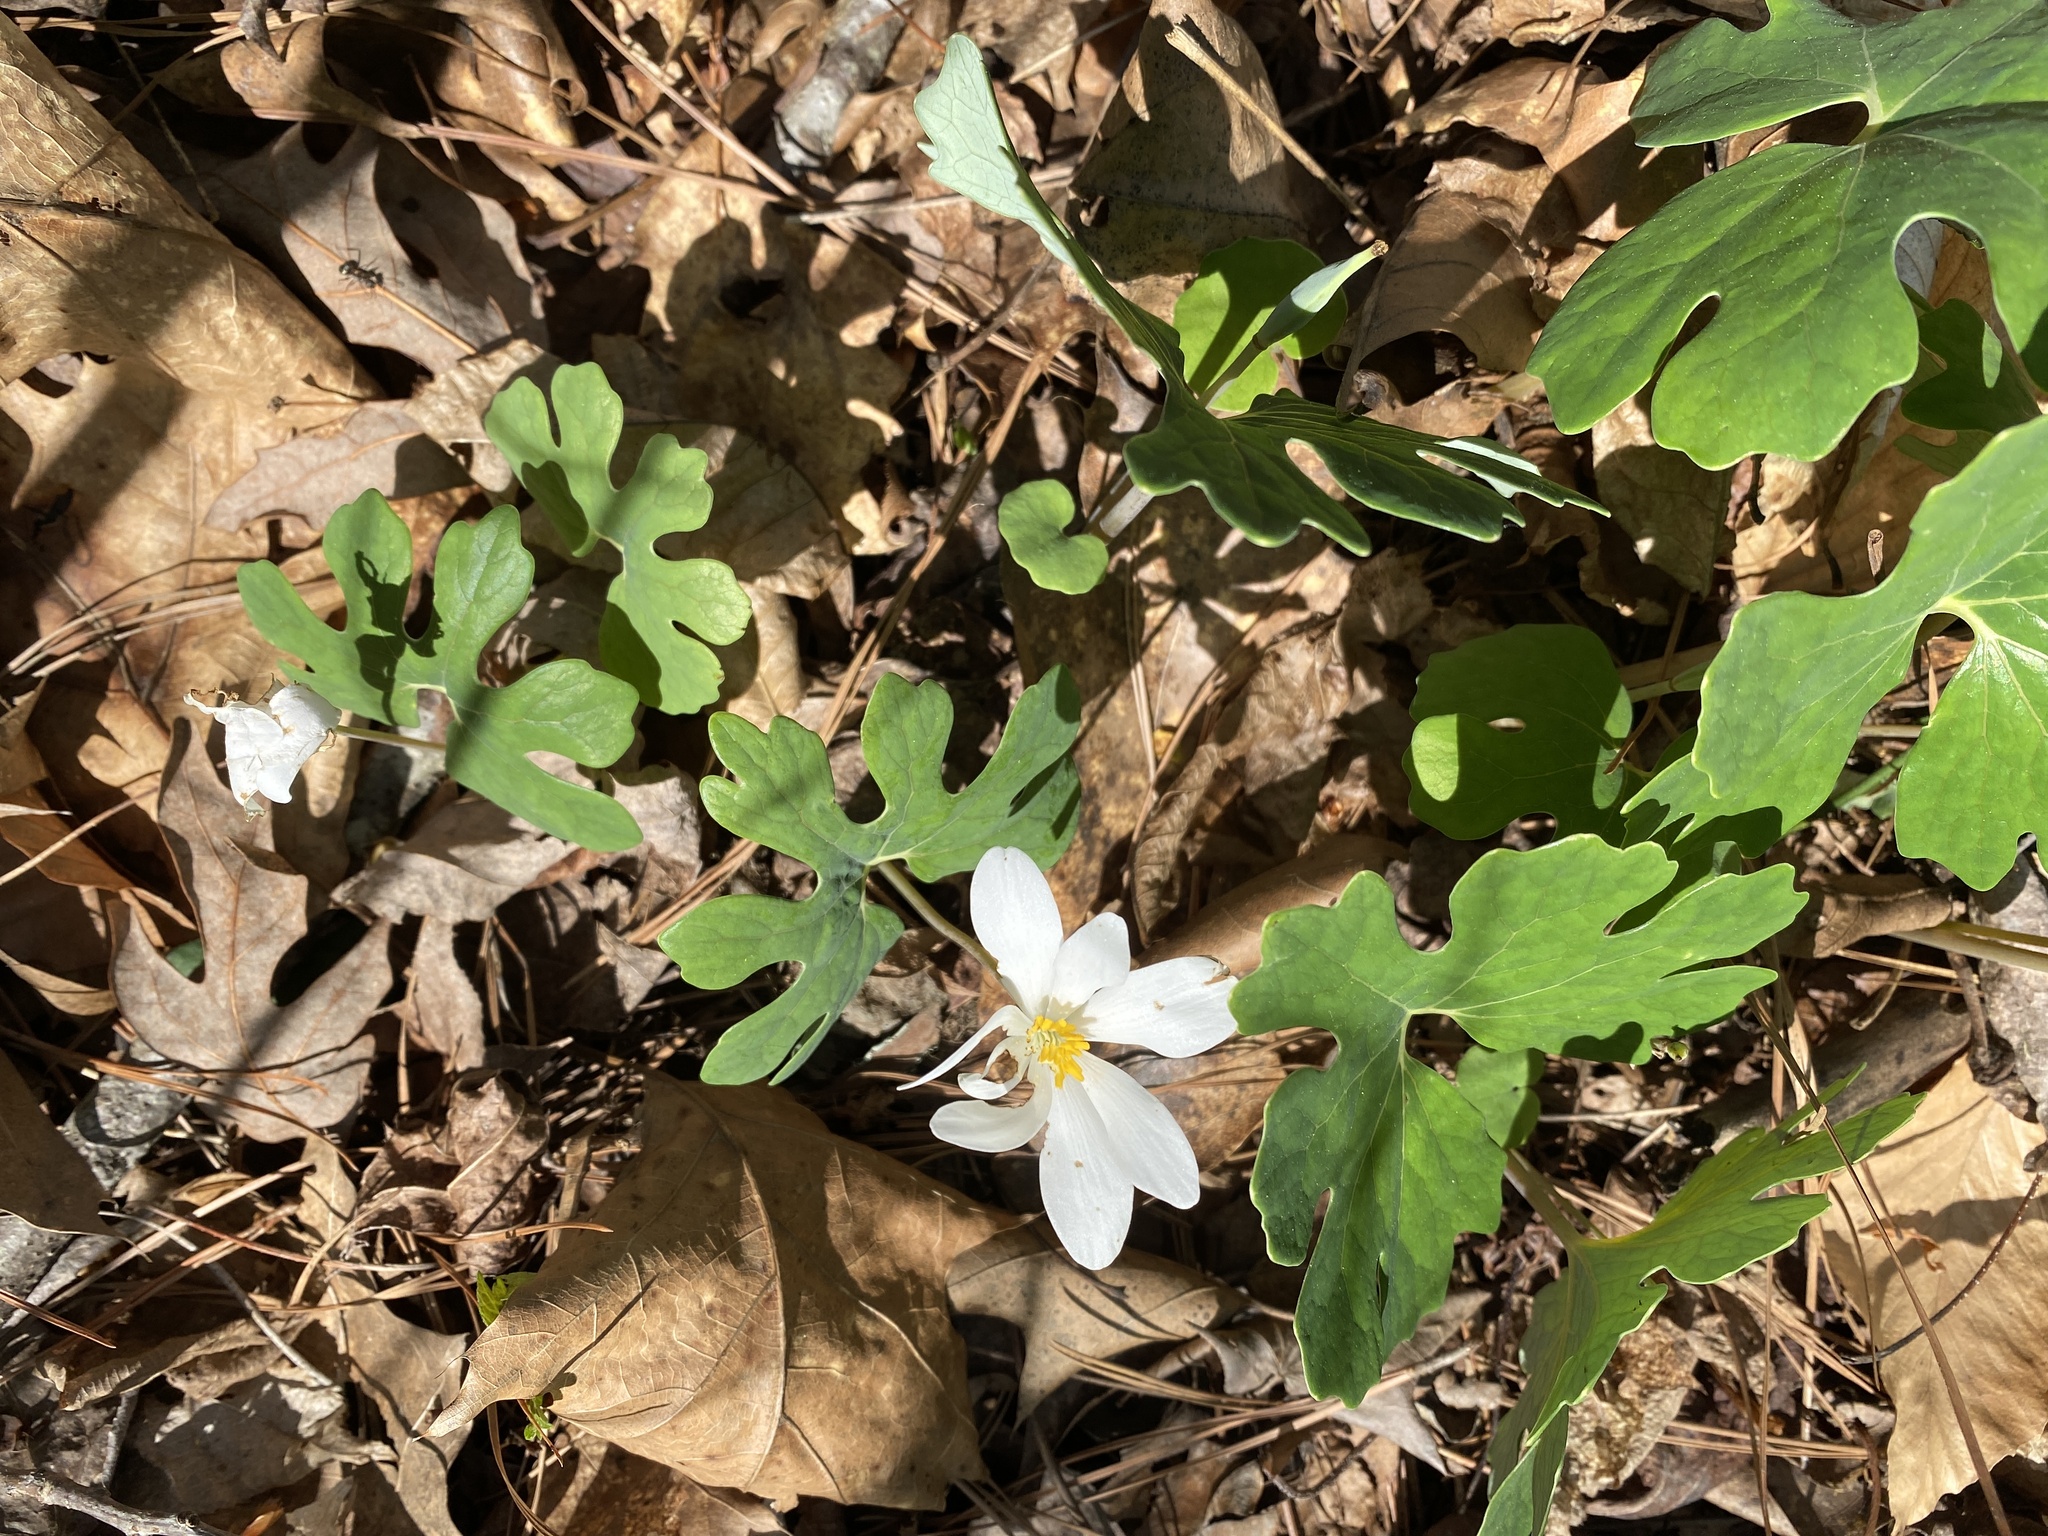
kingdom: Plantae
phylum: Tracheophyta
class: Magnoliopsida
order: Ranunculales
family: Papaveraceae
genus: Sanguinaria
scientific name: Sanguinaria canadensis
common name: Bloodroot
